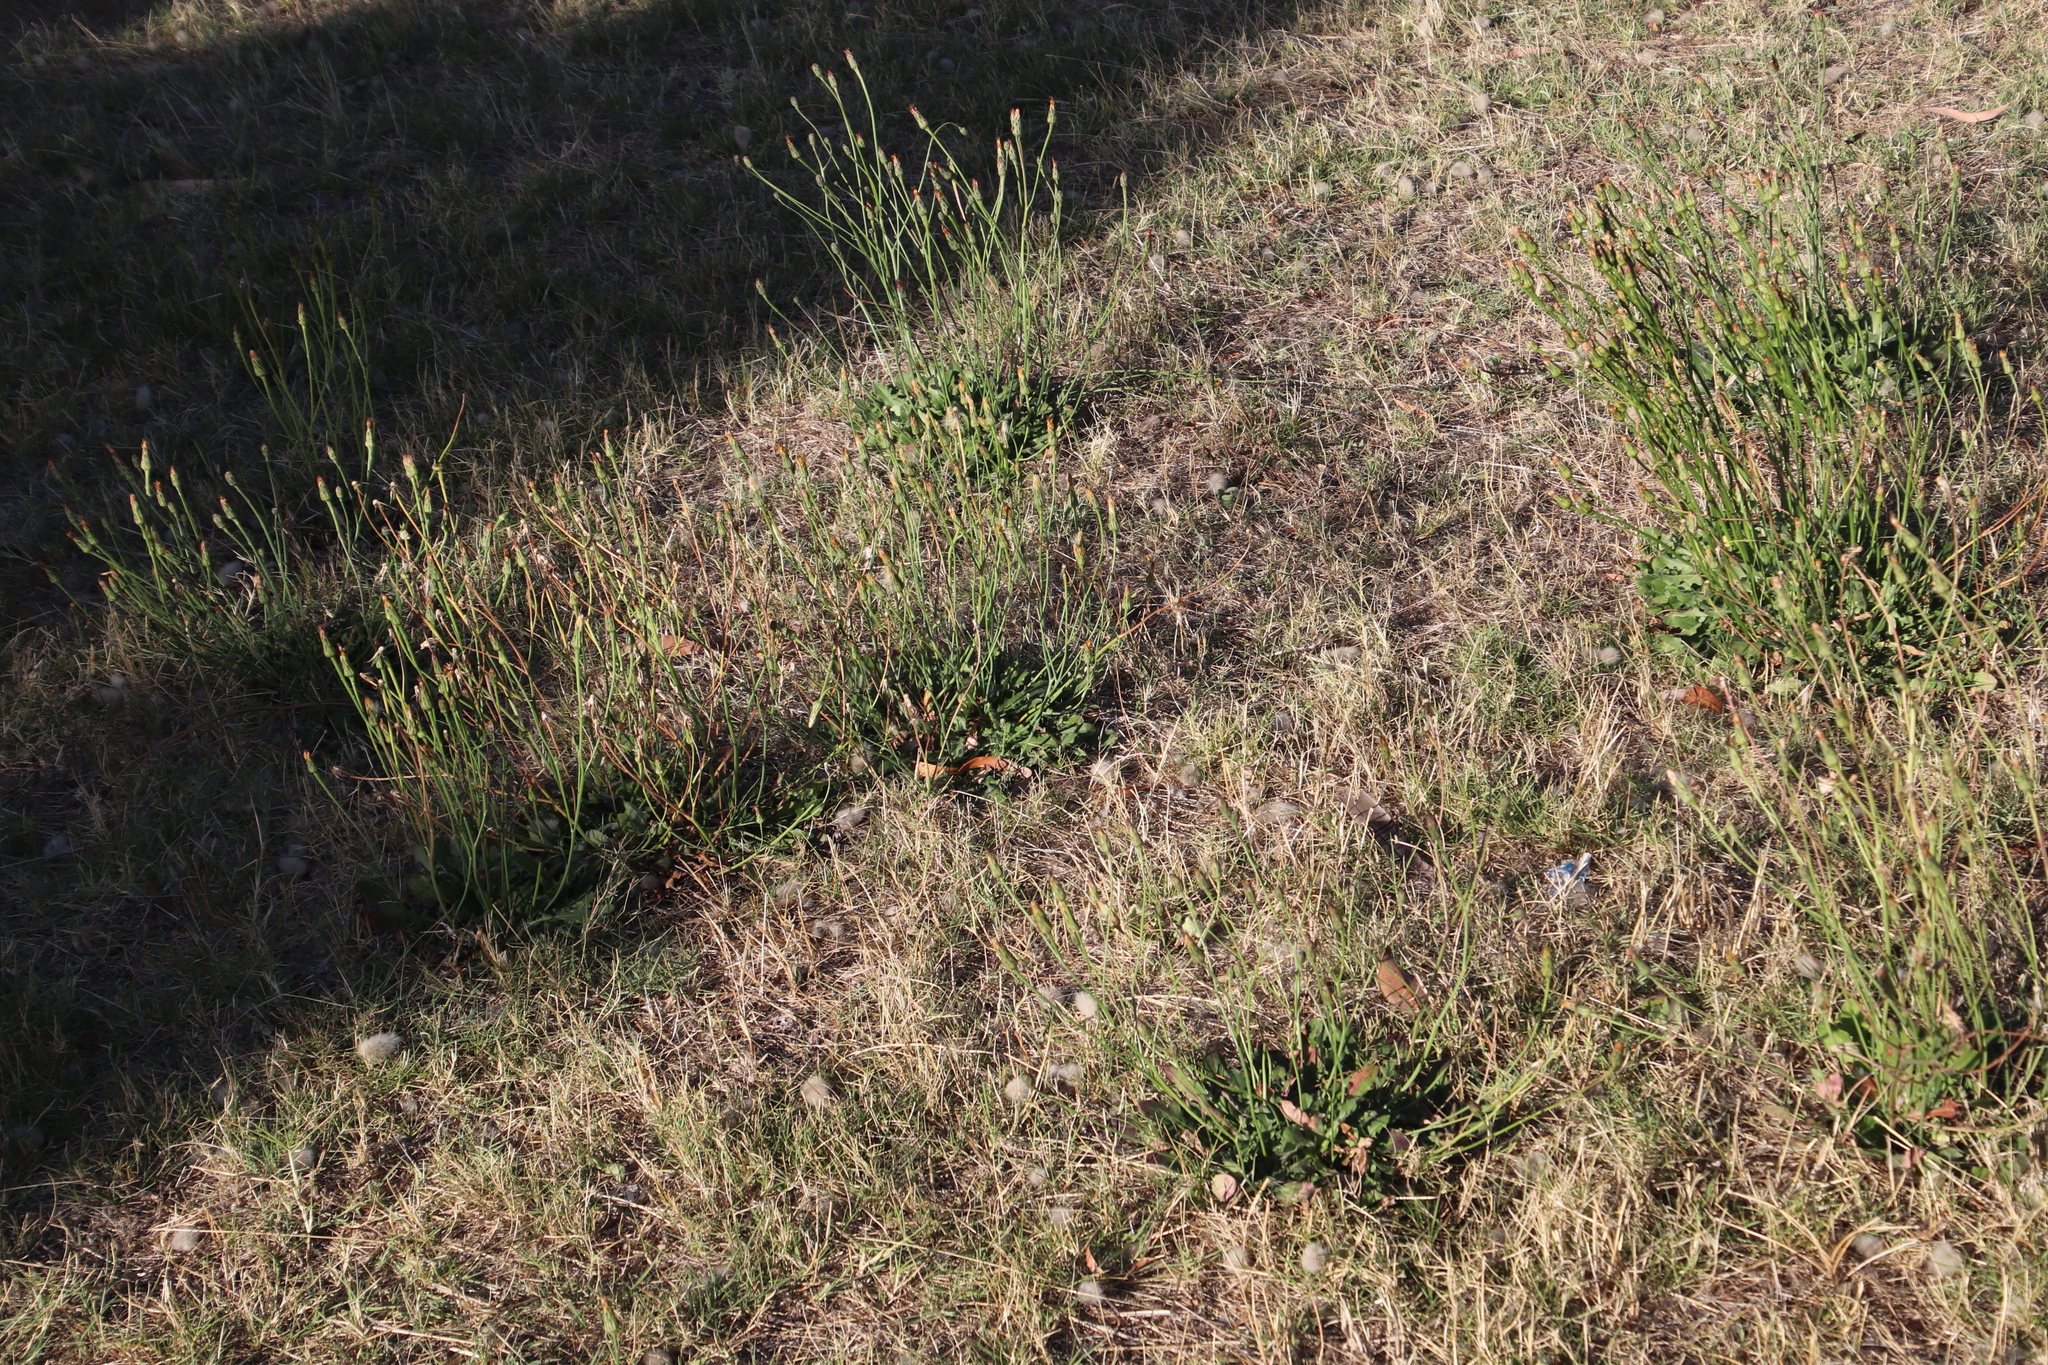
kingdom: Plantae
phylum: Tracheophyta
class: Magnoliopsida
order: Asterales
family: Asteraceae
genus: Hypochaeris
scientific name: Hypochaeris radicata
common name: Flatweed
